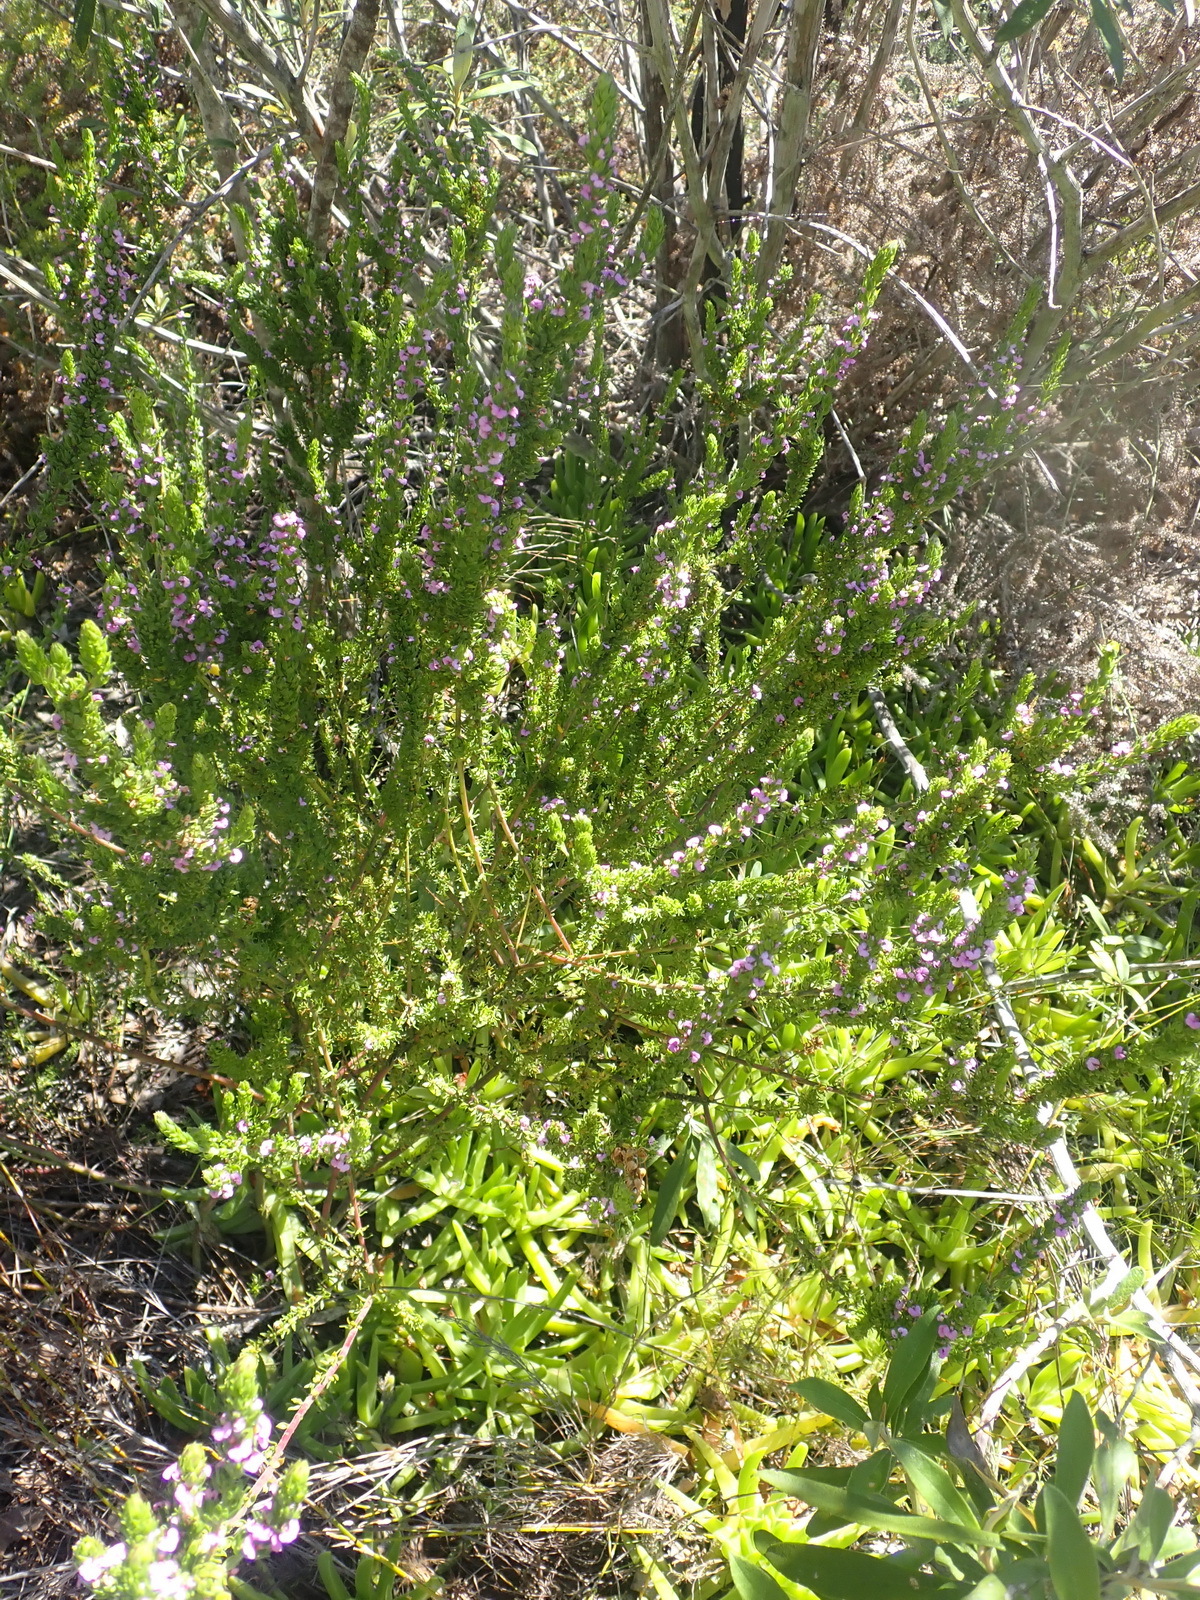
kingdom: Plantae
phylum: Tracheophyta
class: Magnoliopsida
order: Fabales
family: Polygalaceae
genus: Muraltia
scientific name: Muraltia alopecuroides
